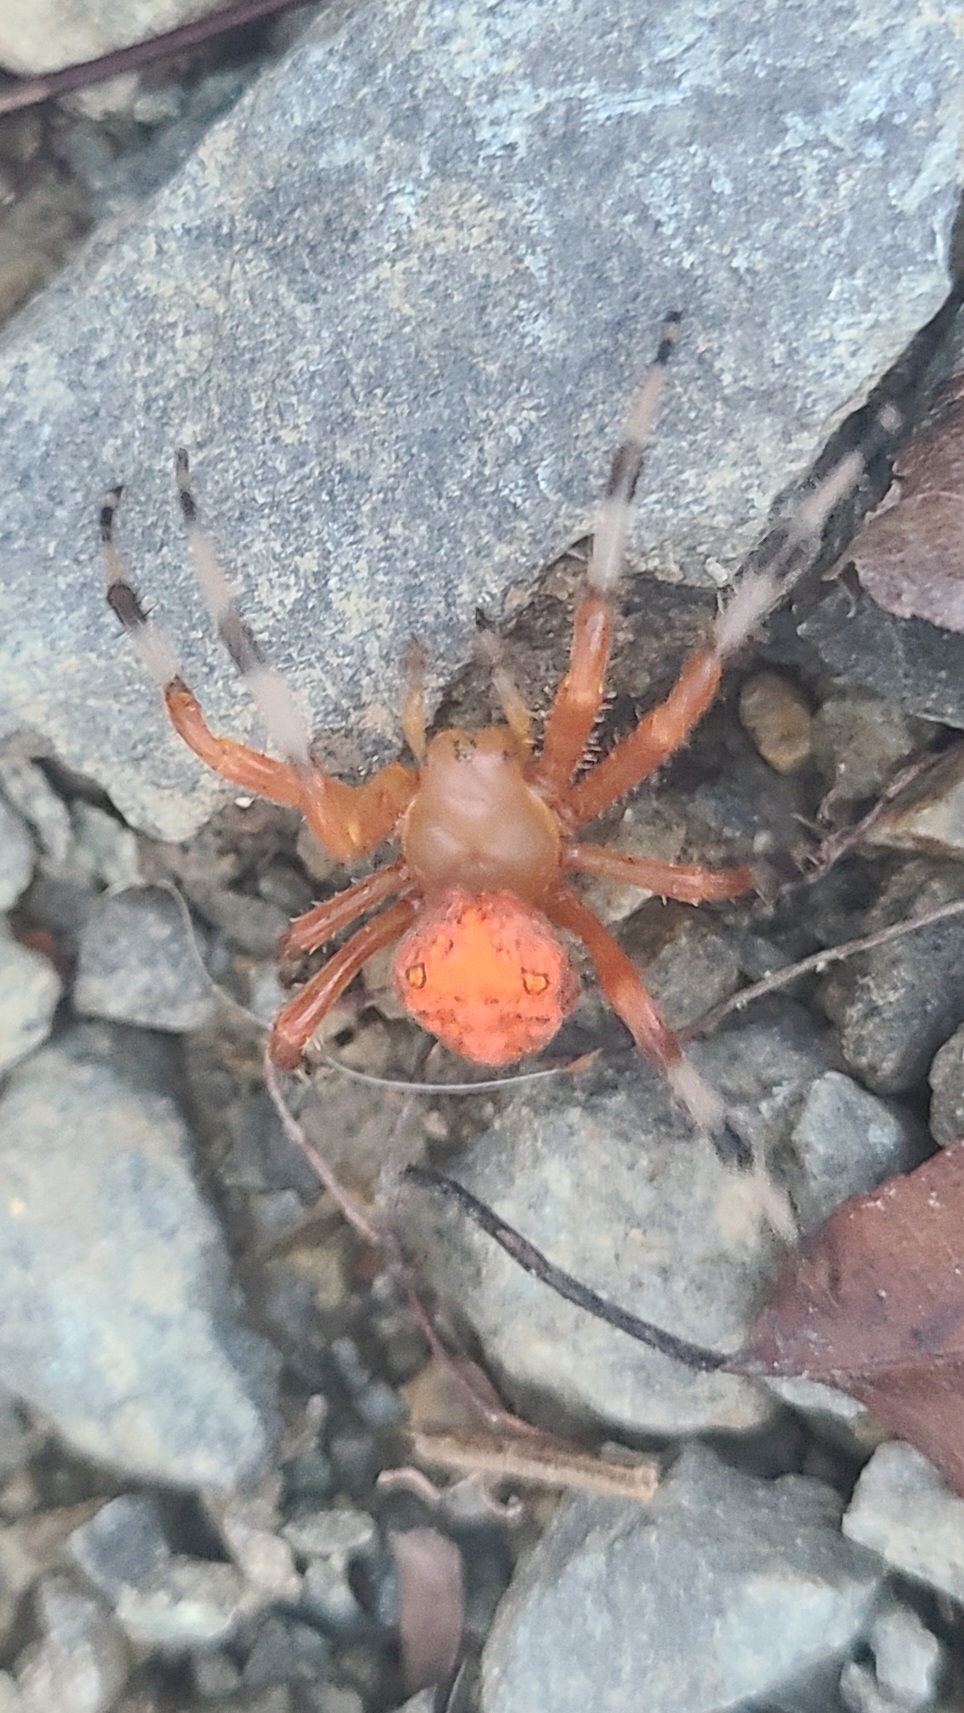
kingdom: Animalia
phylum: Arthropoda
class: Arachnida
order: Araneae
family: Araneidae
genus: Araneus
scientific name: Araneus marmoreus
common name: Marbled orbweaver
